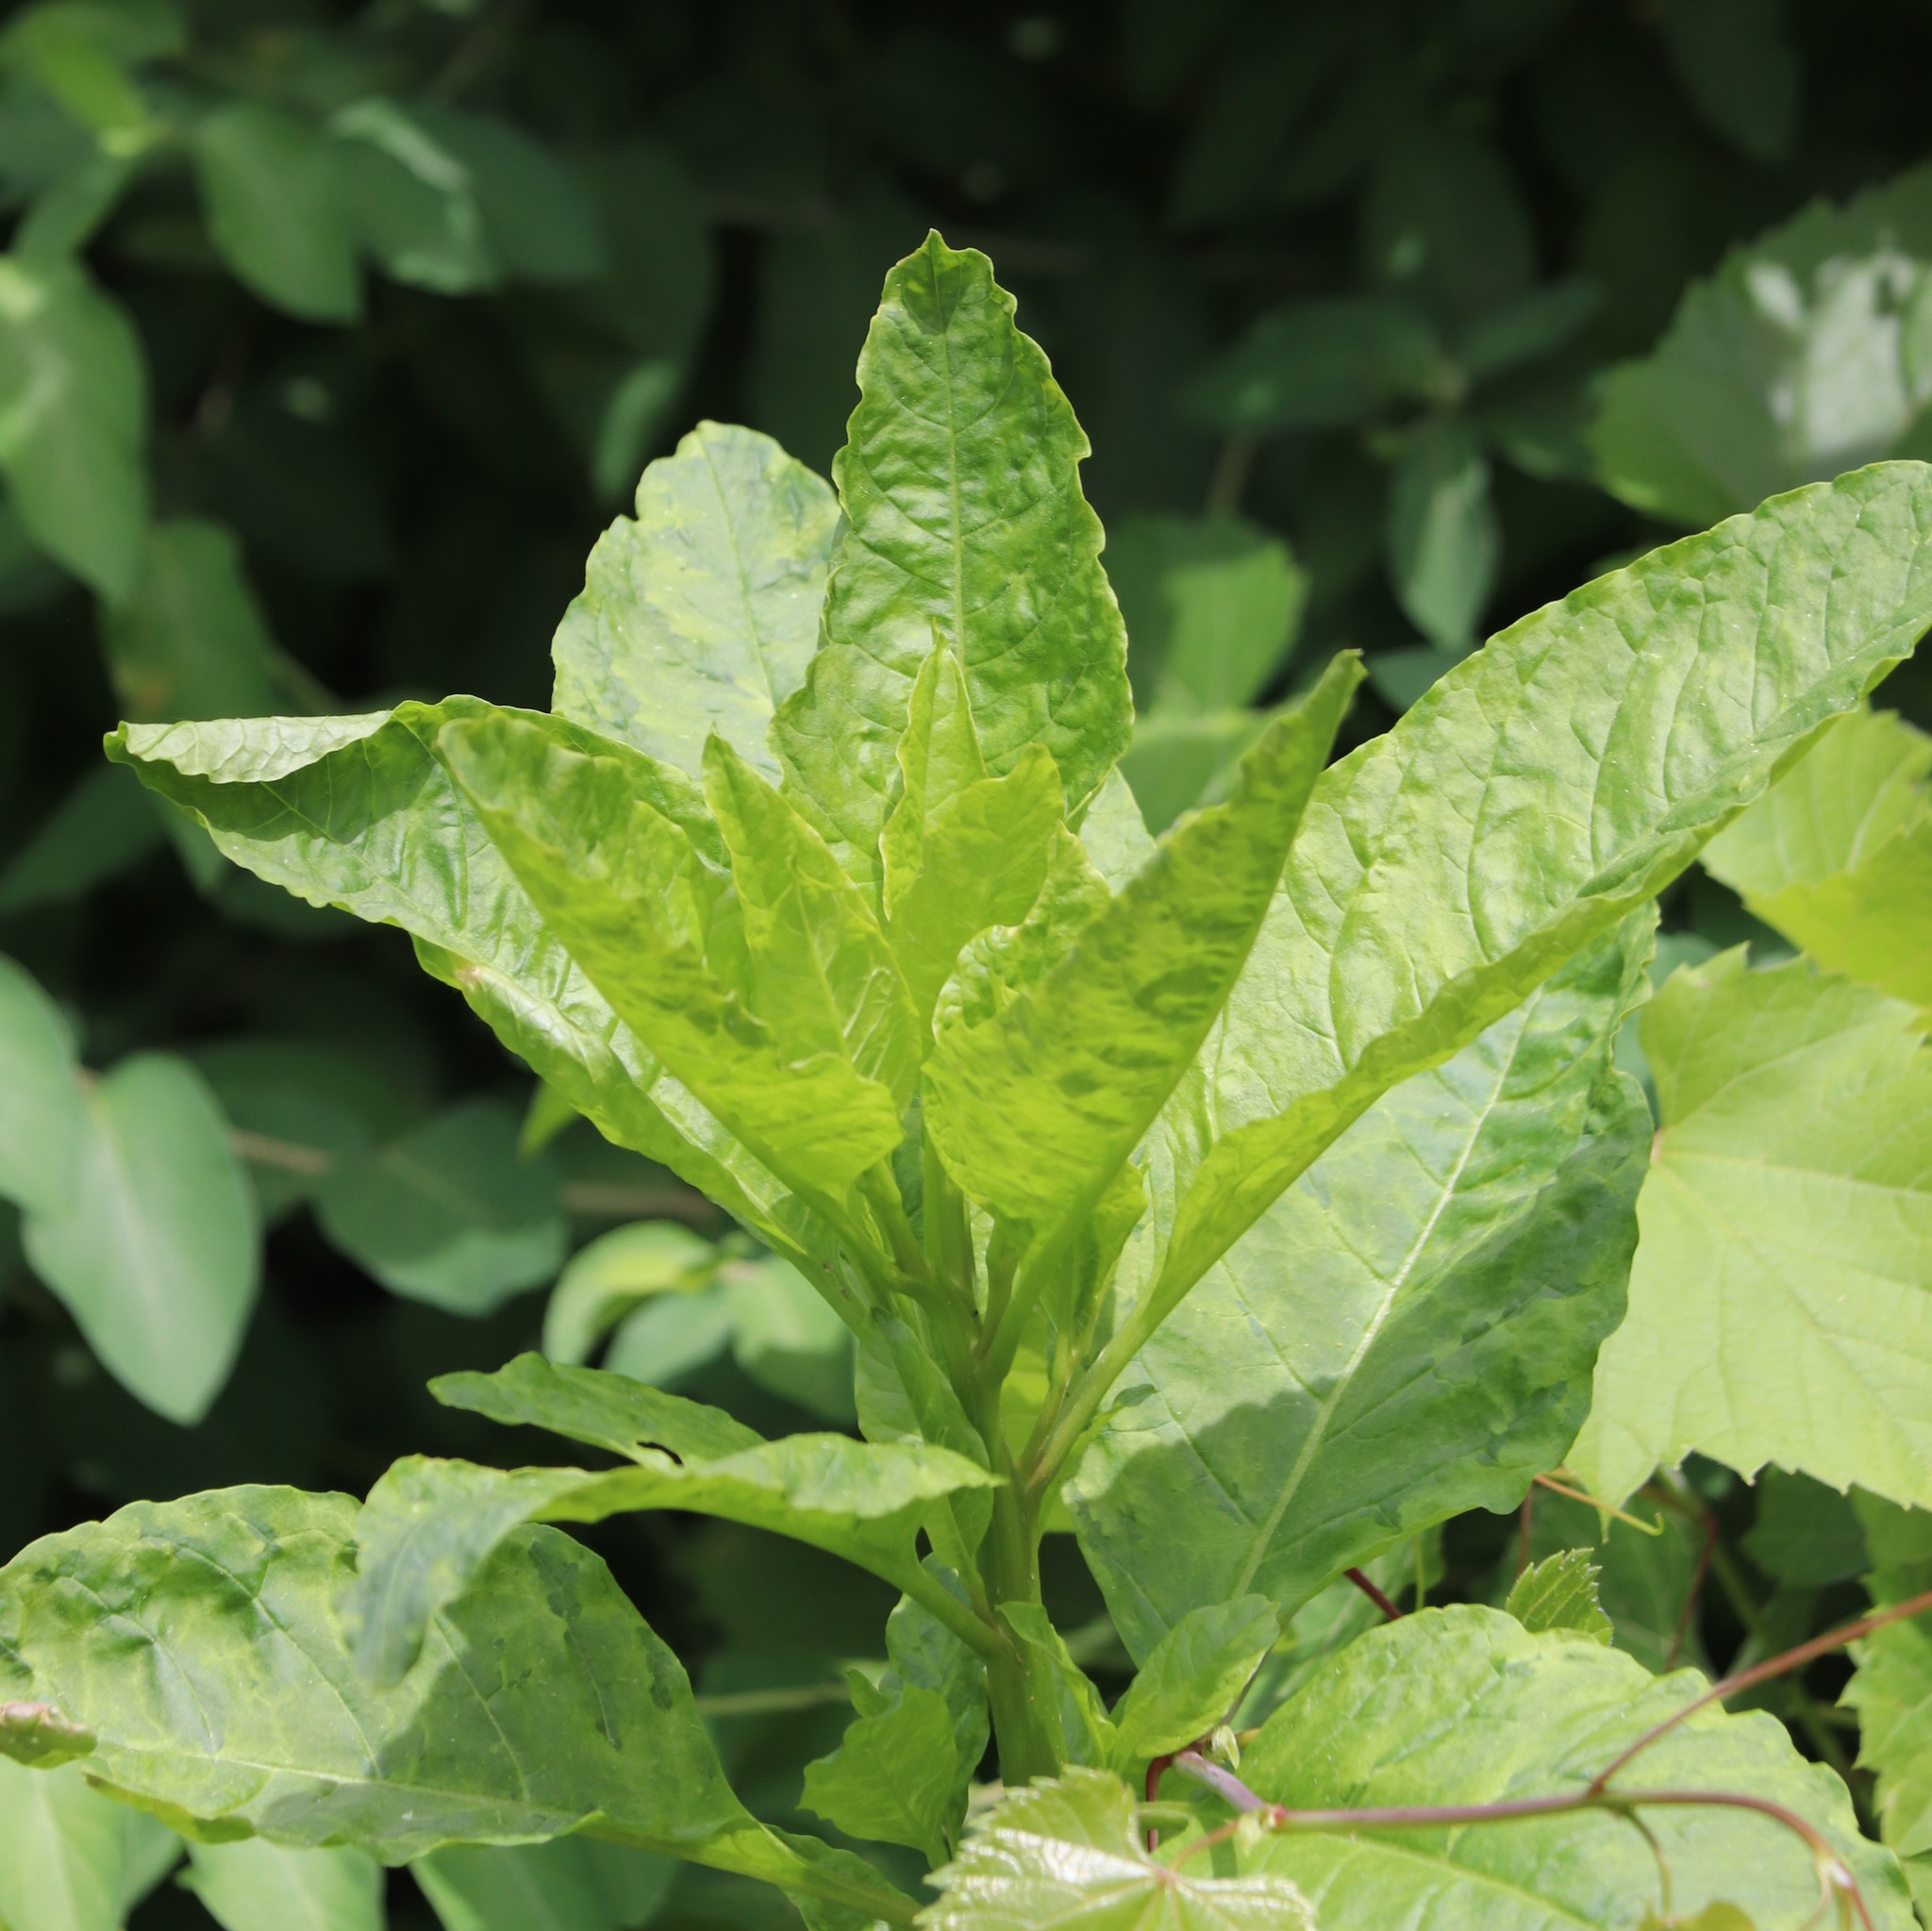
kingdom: Viruses
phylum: Pisuviricota
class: Stelpaviricetes
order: Patatavirales
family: Potyviridae
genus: Potyvirus
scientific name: Potyvirus Pokeweed mosaic virus
